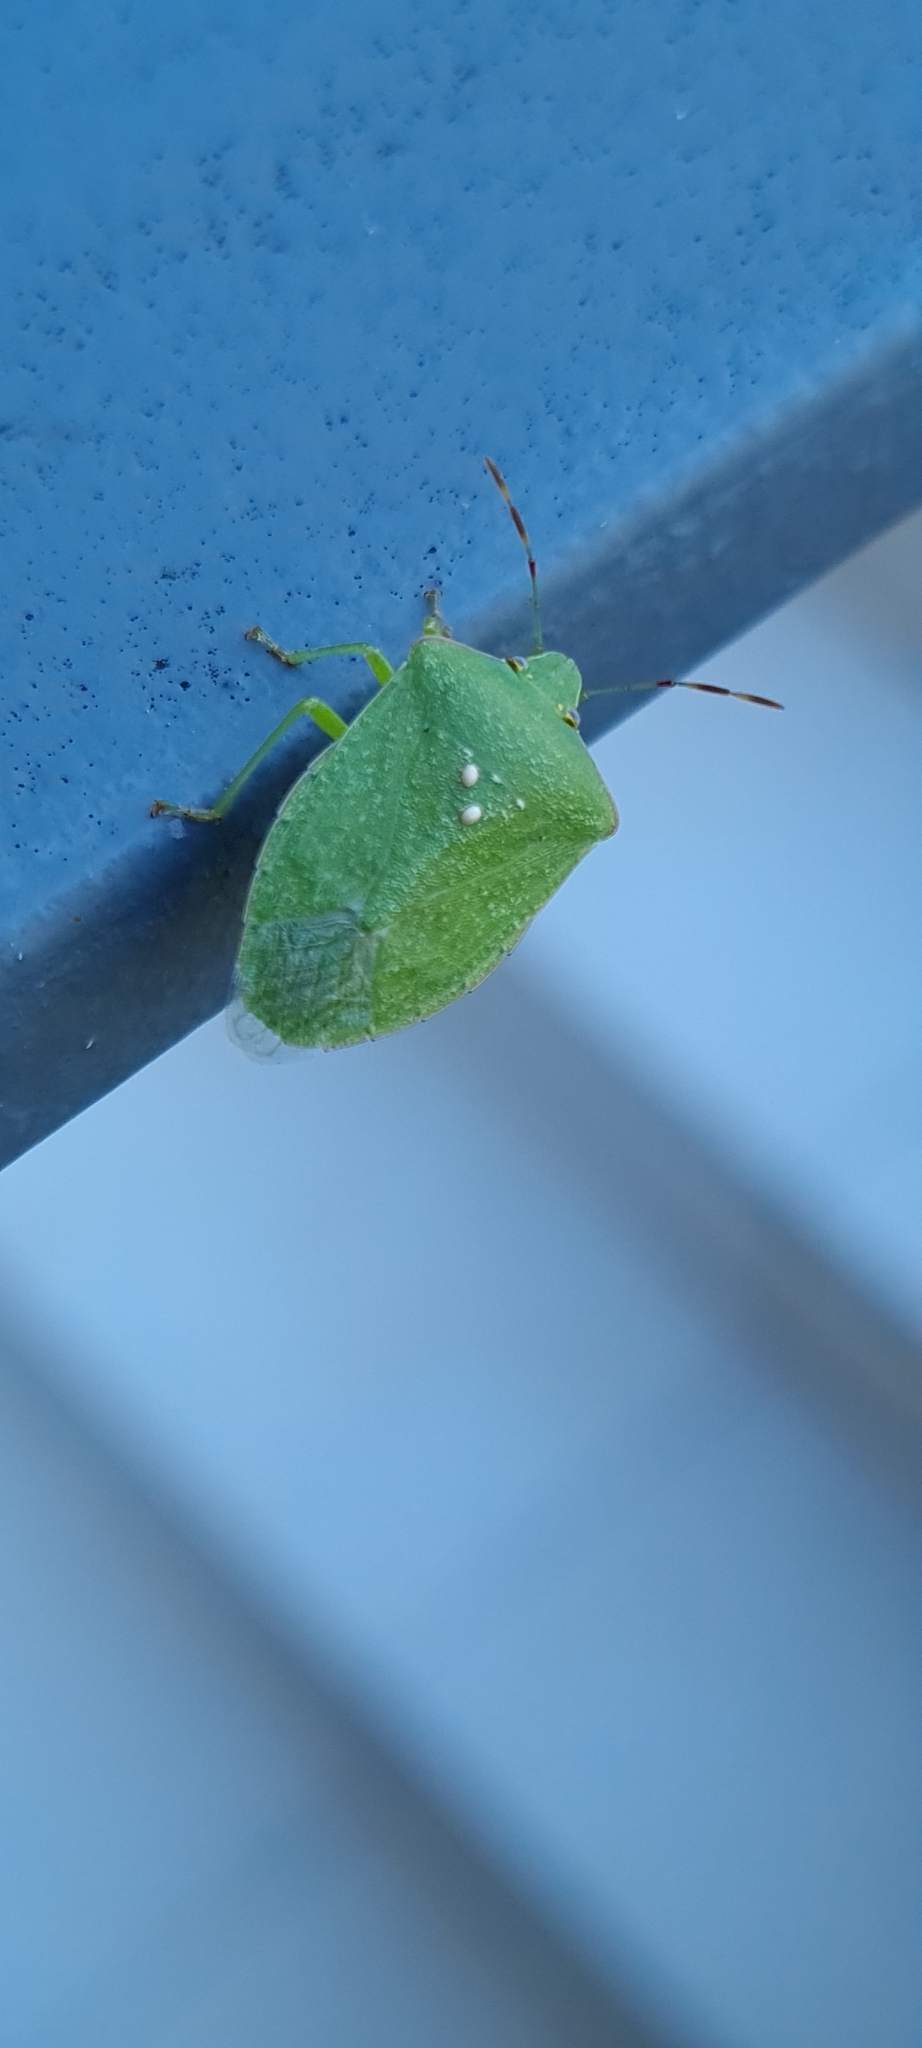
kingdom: Animalia
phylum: Arthropoda
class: Insecta
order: Hemiptera
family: Pentatomidae
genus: Nezara
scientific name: Nezara viridula
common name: Southern green stink bug
